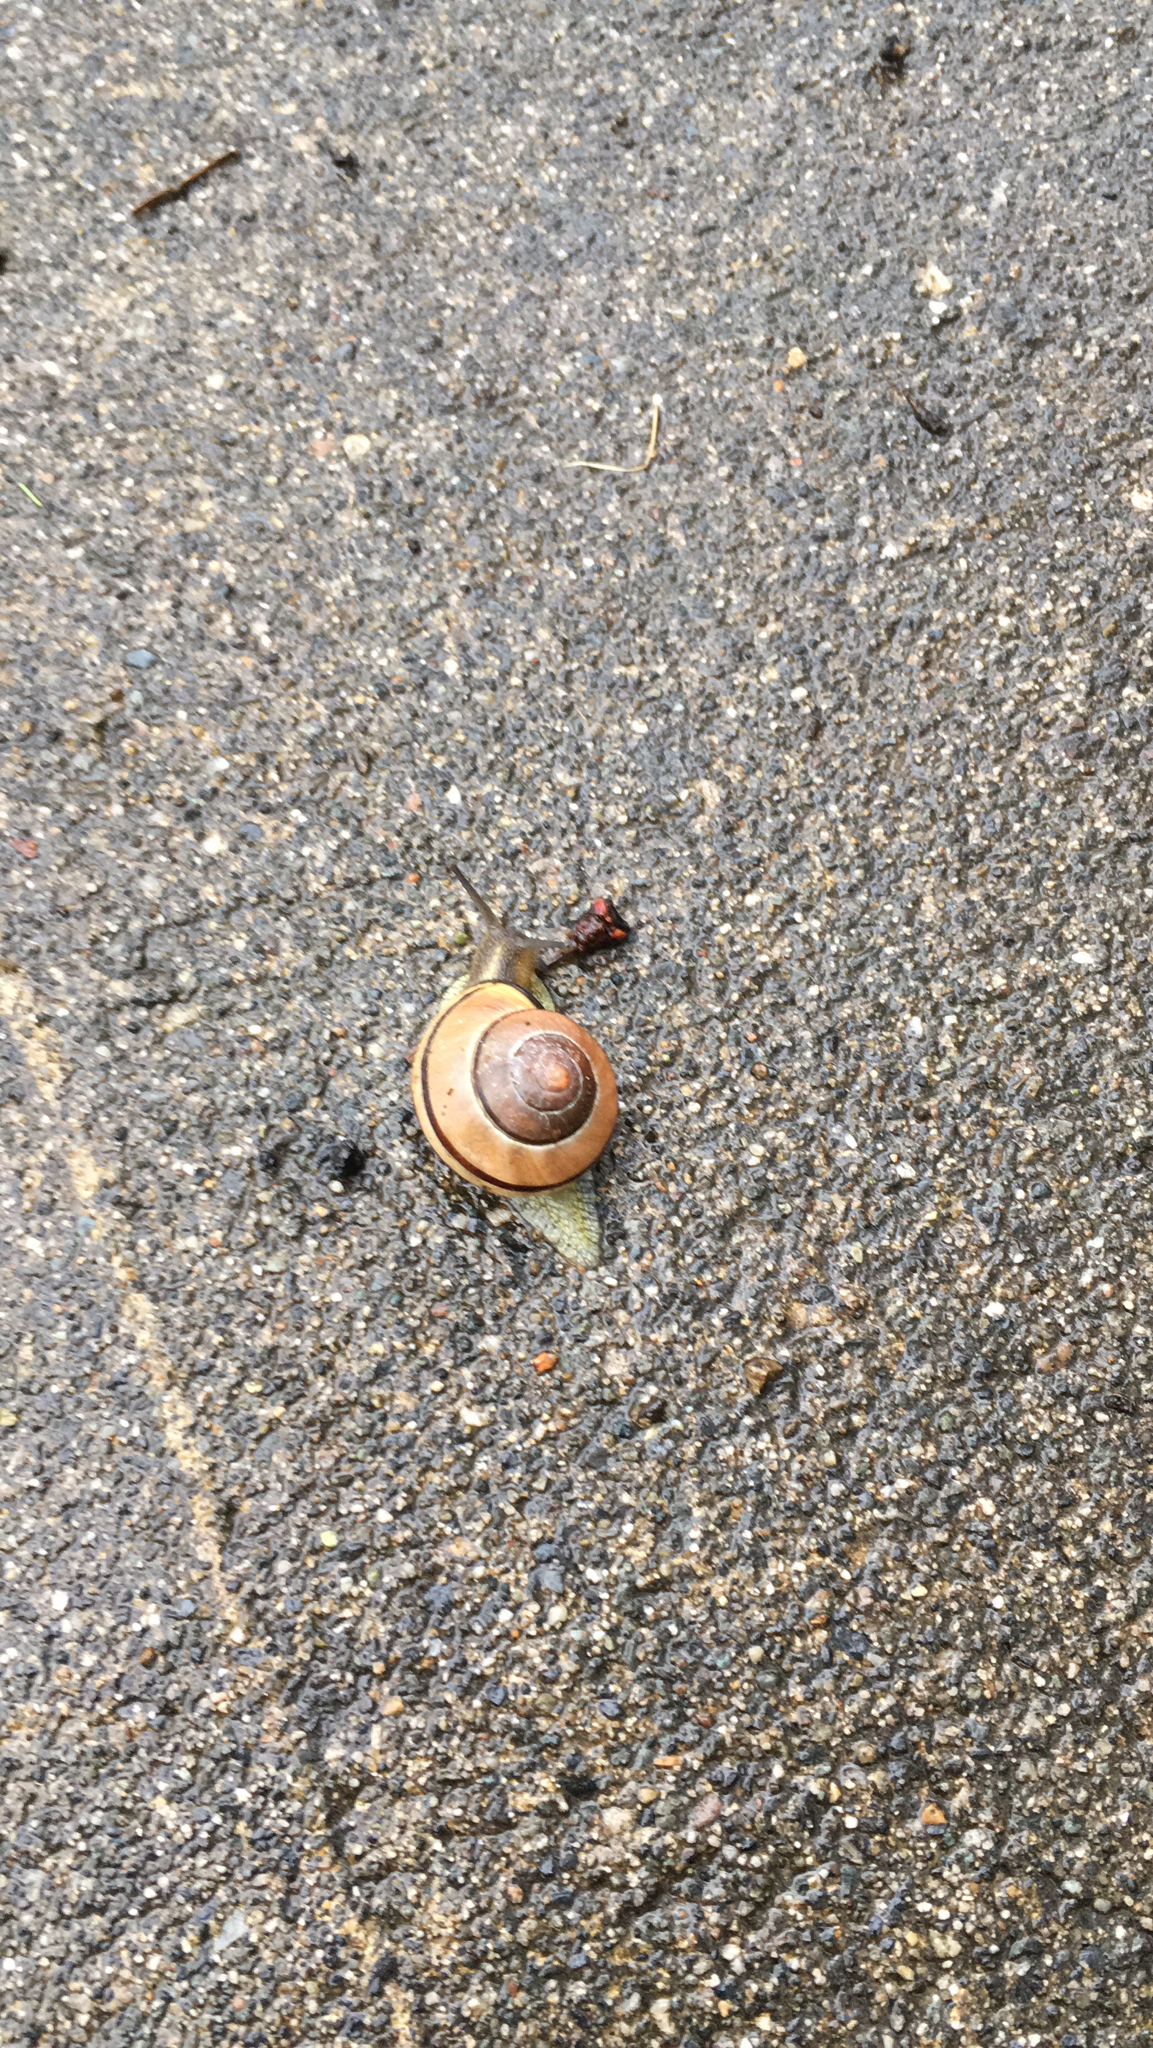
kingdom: Animalia
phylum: Mollusca
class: Gastropoda
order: Stylommatophora
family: Helicidae
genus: Cepaea
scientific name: Cepaea nemoralis
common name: Grovesnail
